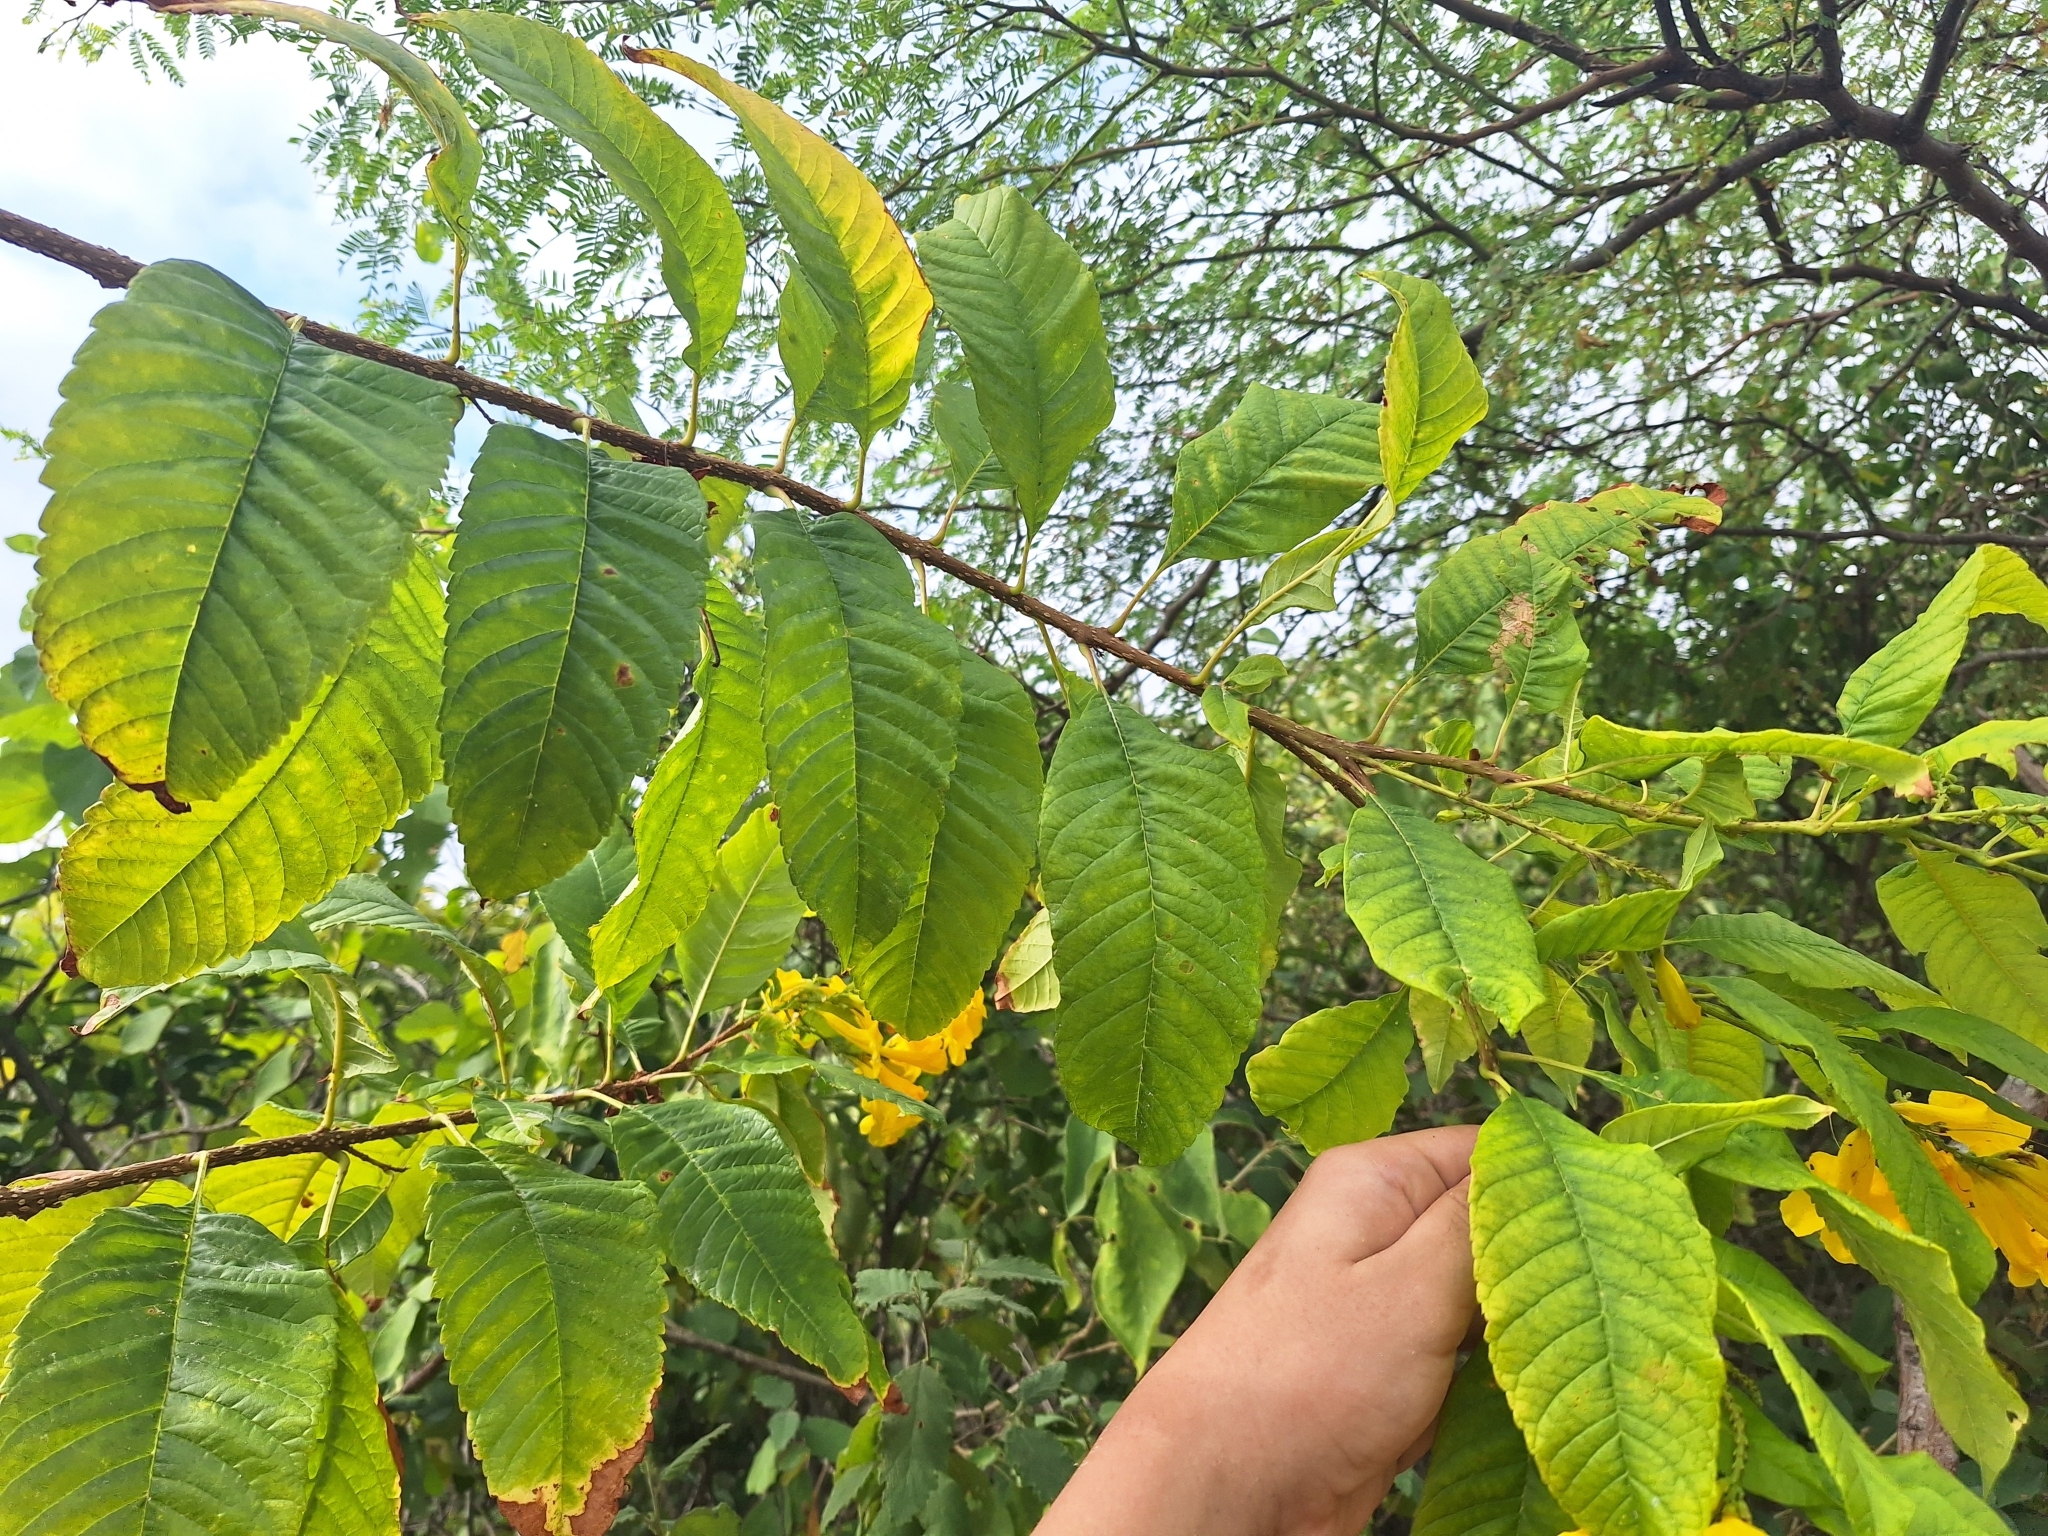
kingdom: Plantae
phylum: Tracheophyta
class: Magnoliopsida
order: Lamiales
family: Bignoniaceae
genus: Tecoma
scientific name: Tecoma castanifolia
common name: Chestnutleaf trumpetbush
